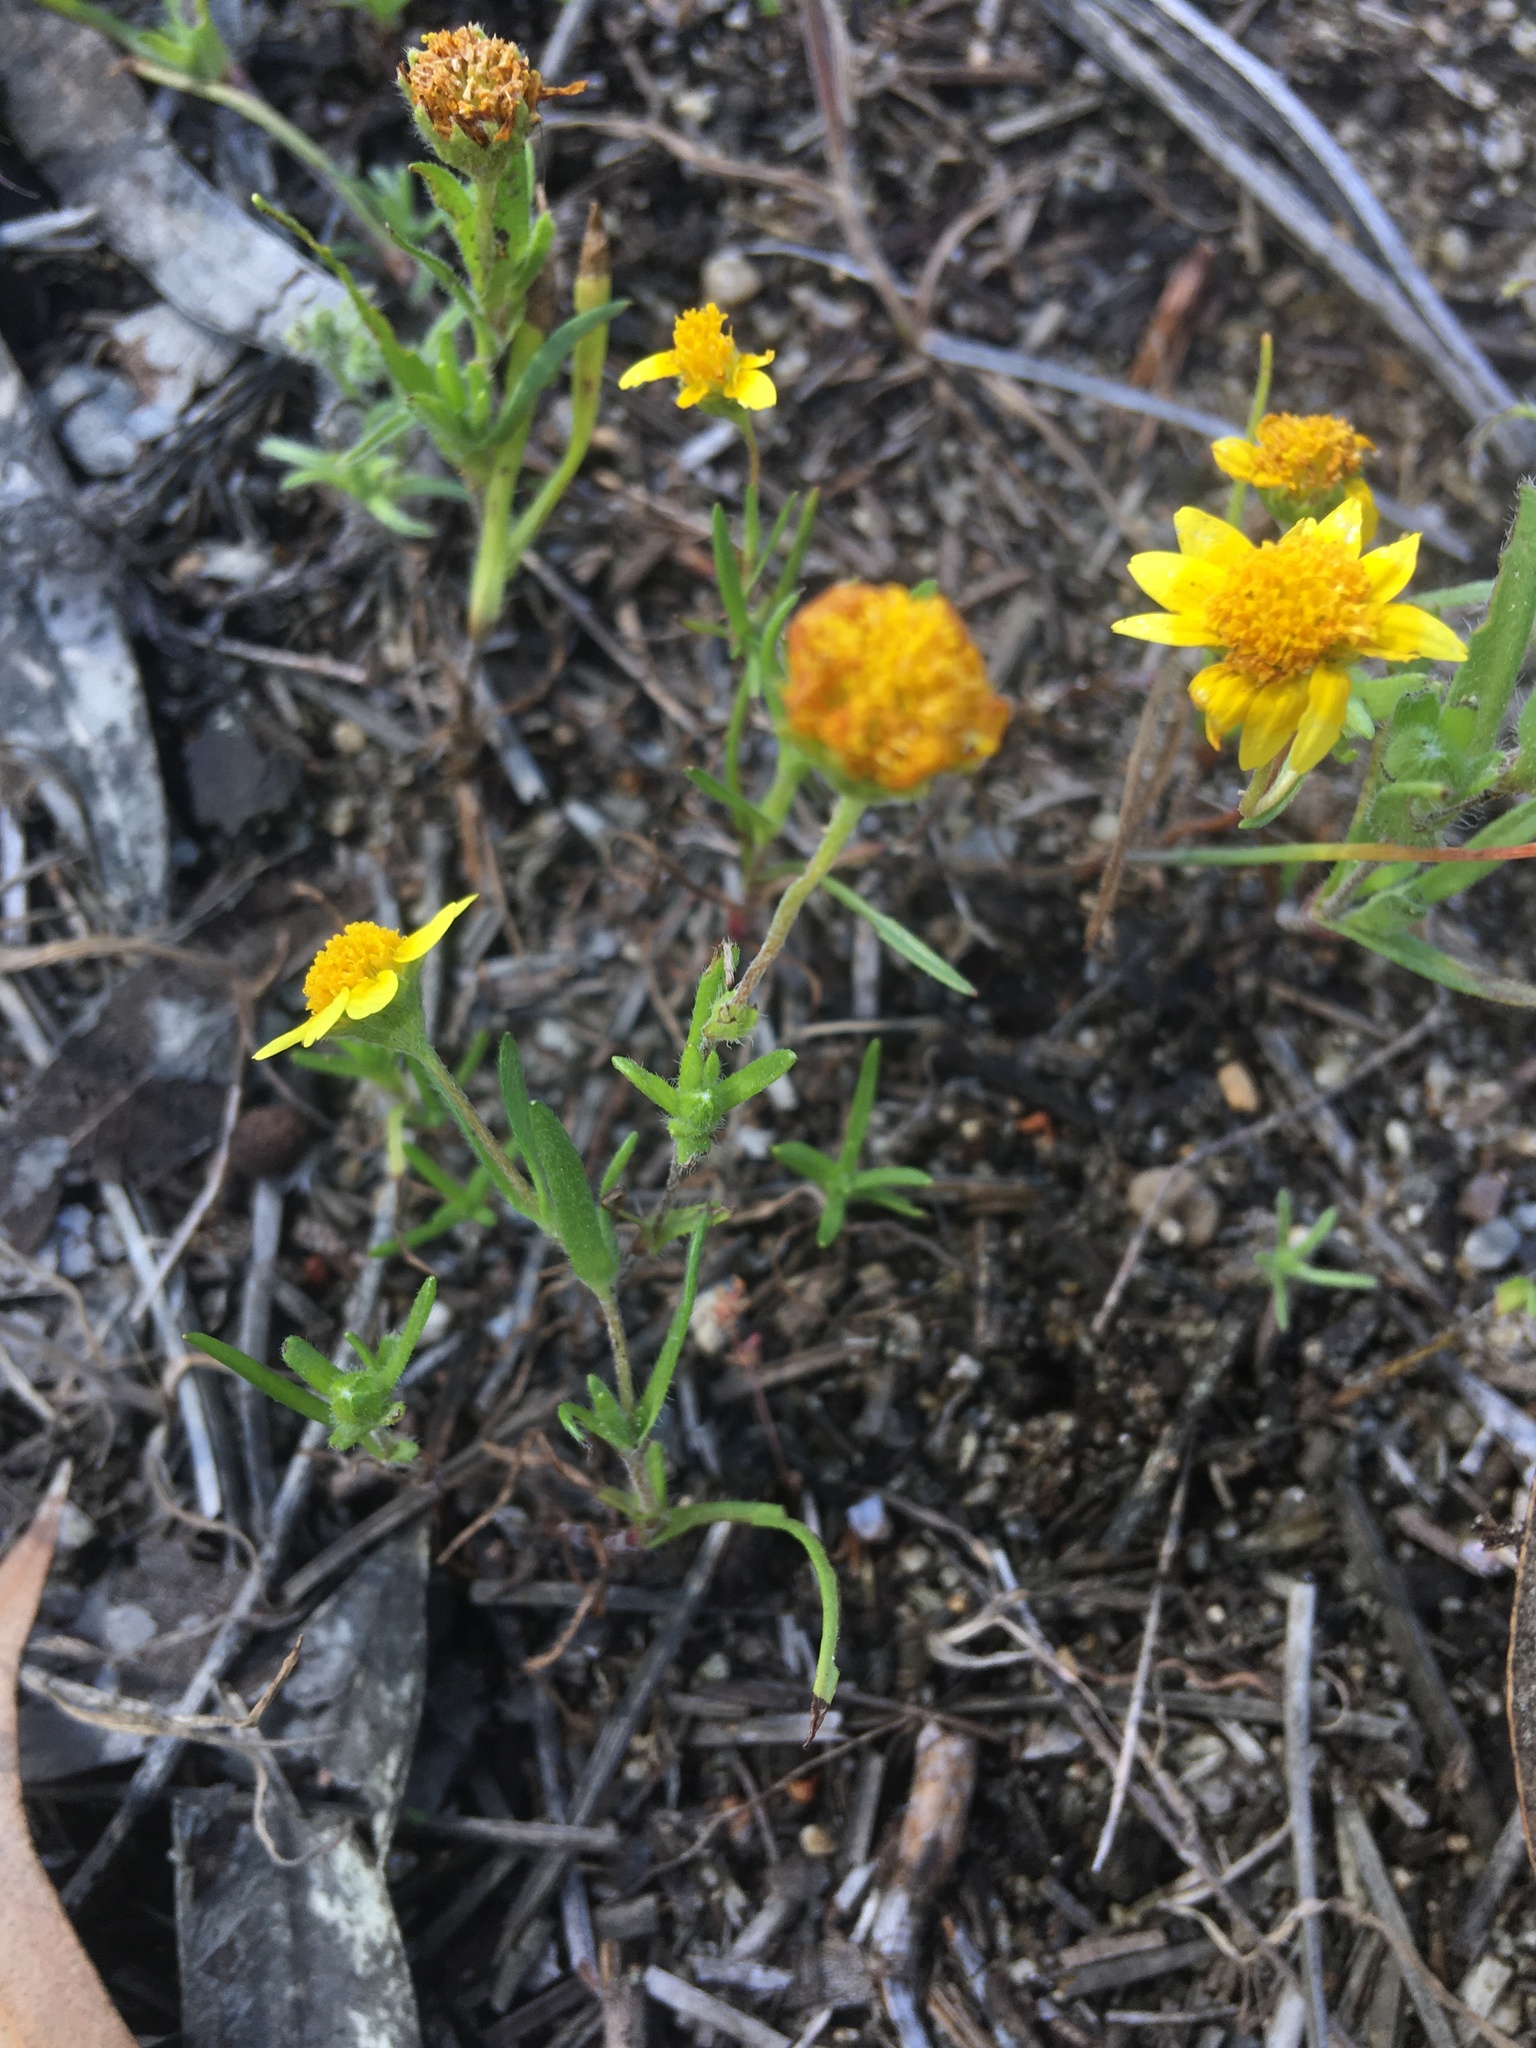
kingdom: Plantae
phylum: Tracheophyta
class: Magnoliopsida
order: Asterales
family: Asteraceae
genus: Lasthenia
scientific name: Lasthenia gracilis
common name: Common goldfields
